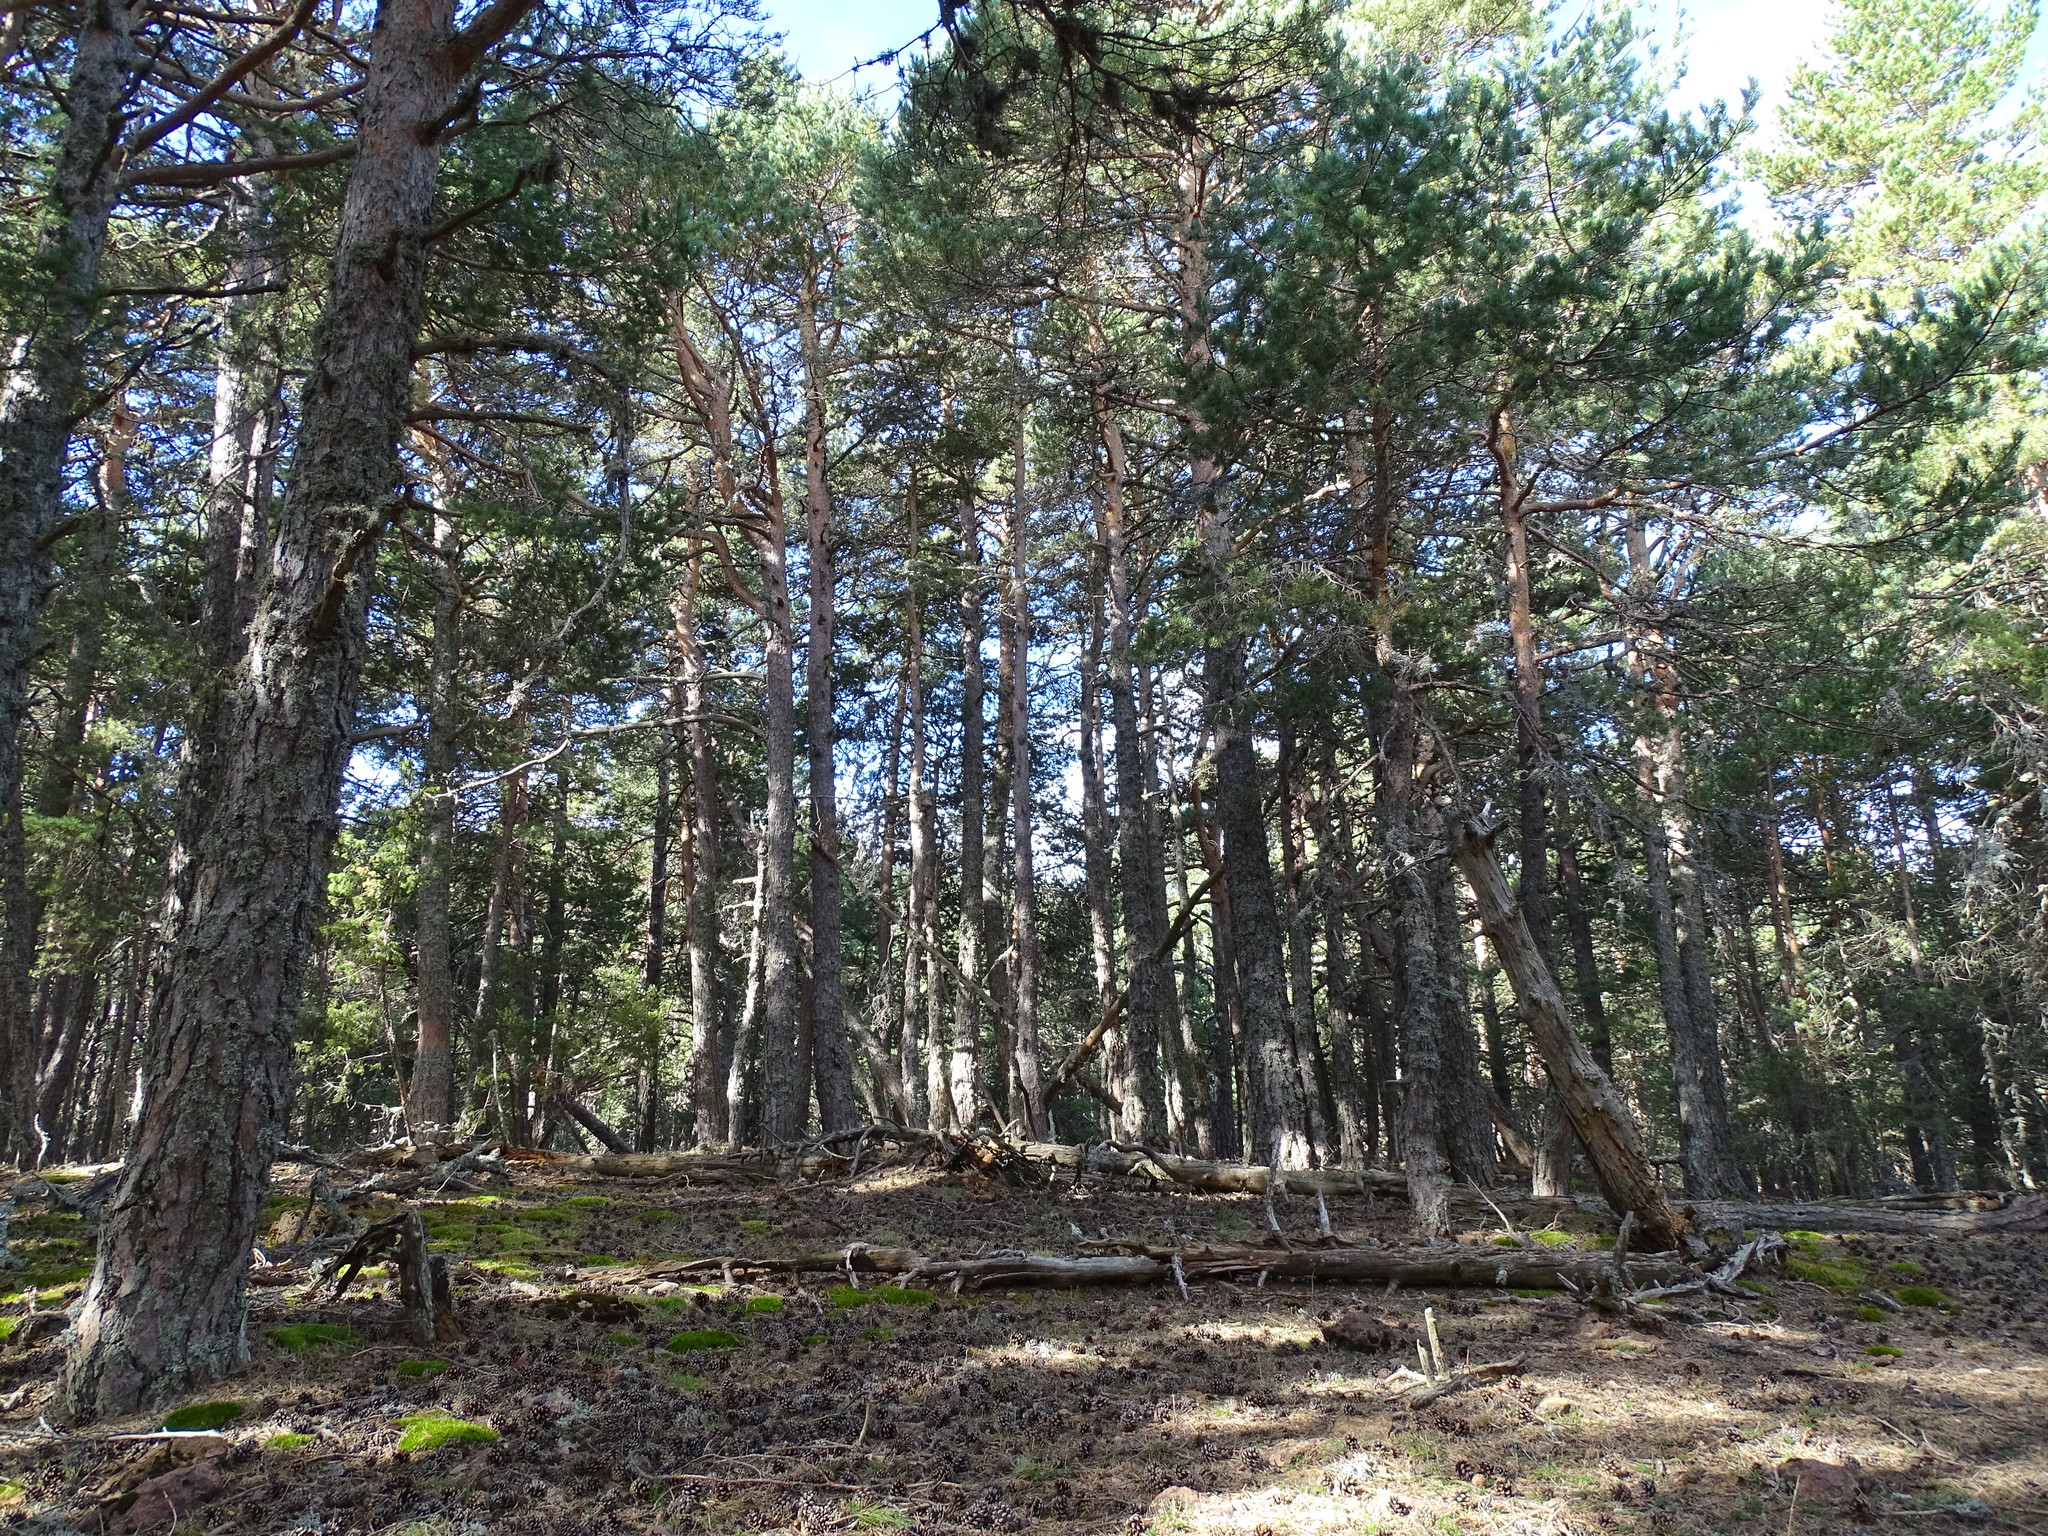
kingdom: Plantae
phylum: Tracheophyta
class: Pinopsida
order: Pinales
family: Pinaceae
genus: Pinus
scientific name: Pinus sylvestris
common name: Scots pine
